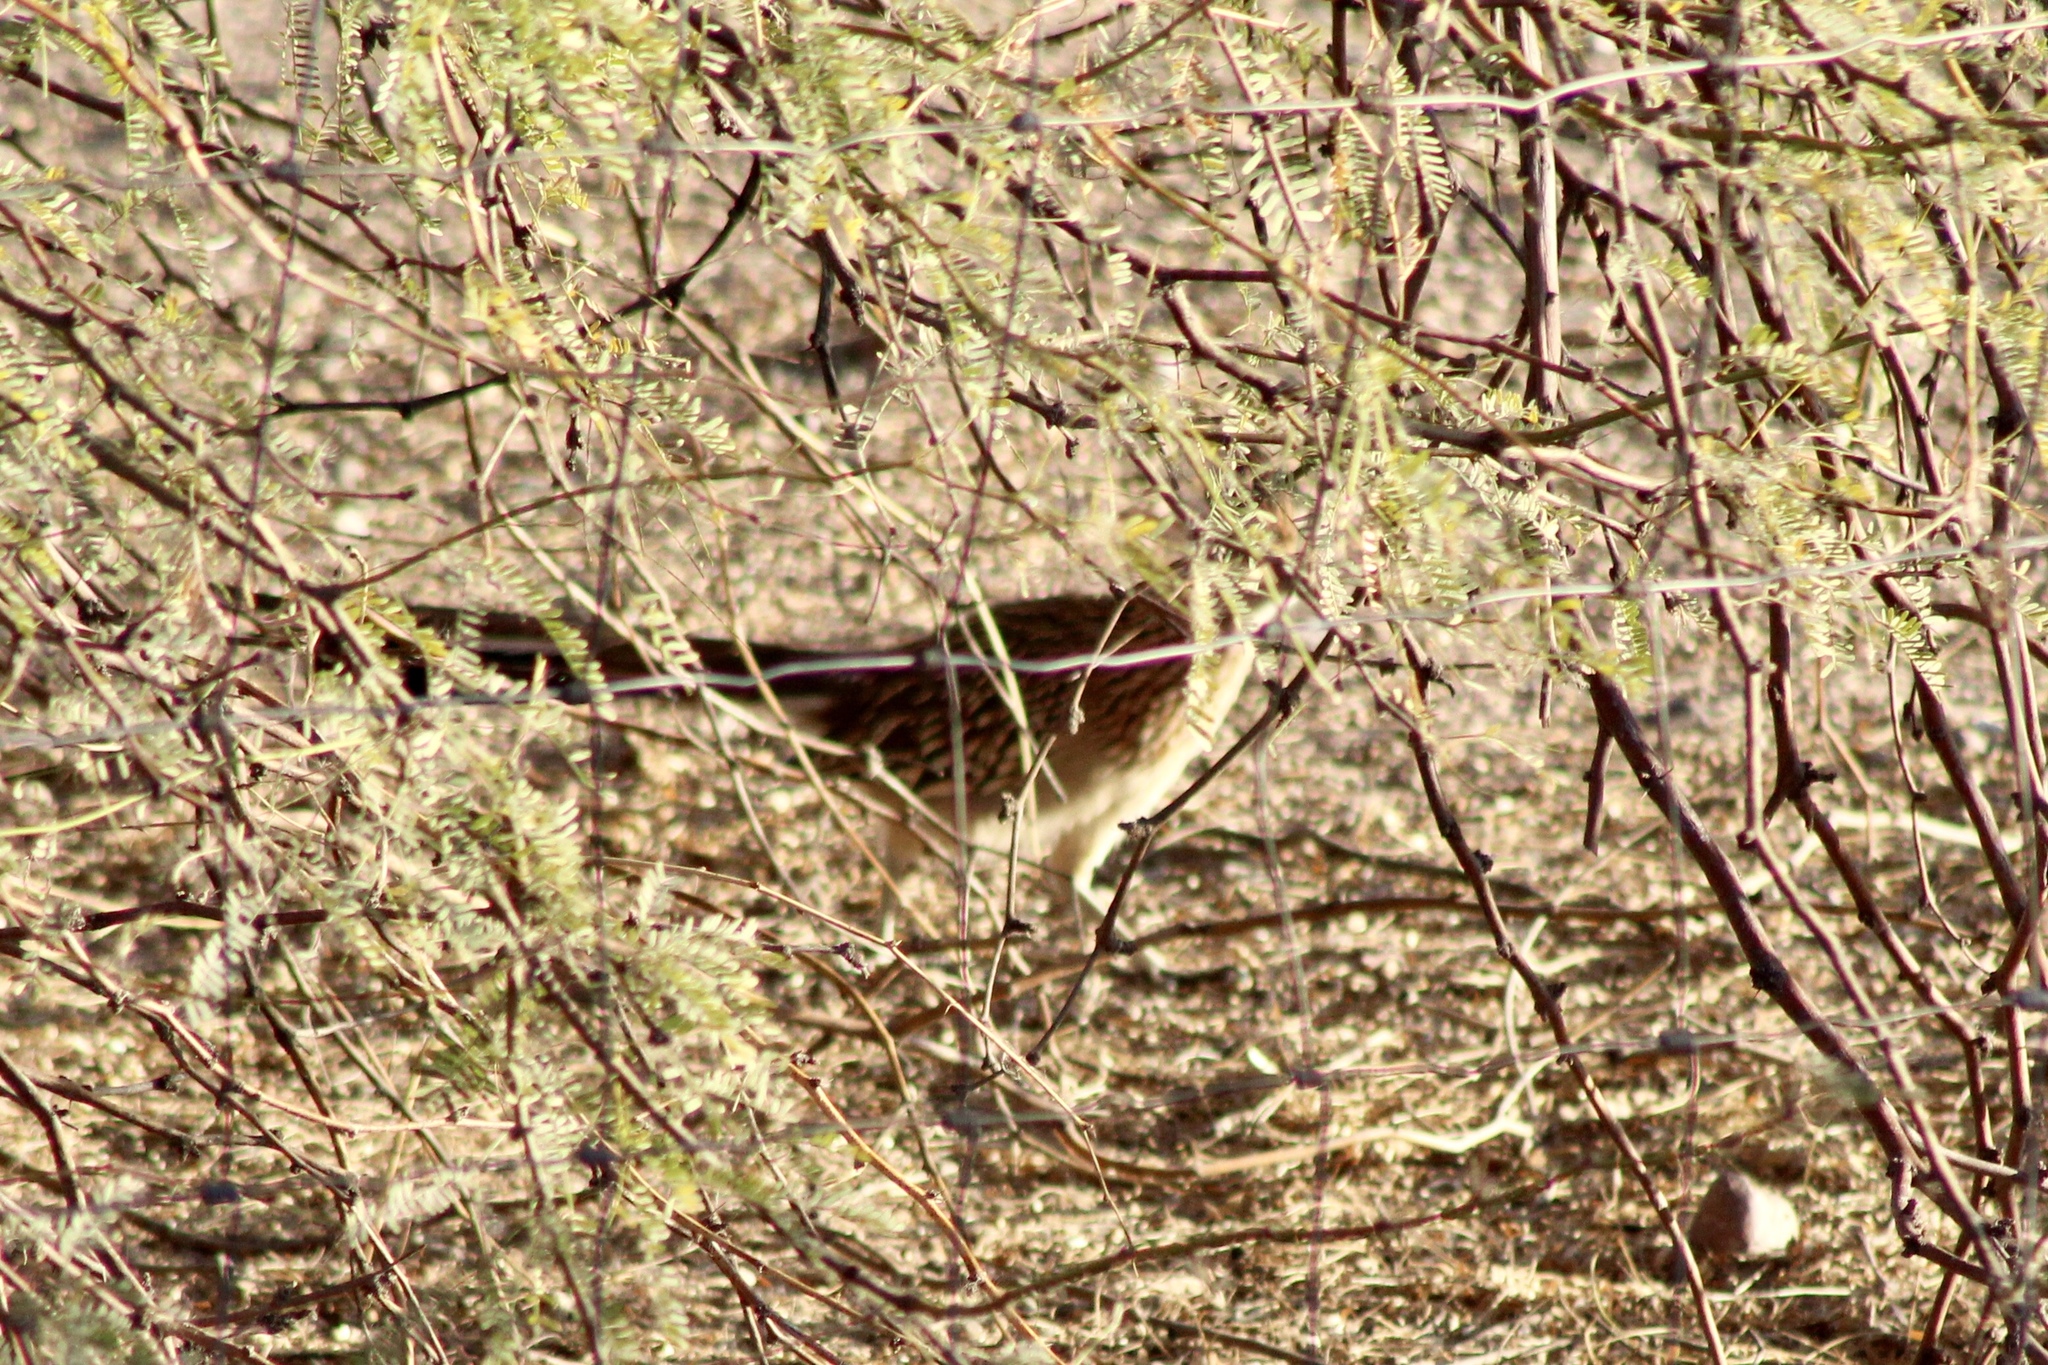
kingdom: Animalia
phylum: Chordata
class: Aves
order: Cuculiformes
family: Cuculidae
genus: Geococcyx
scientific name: Geococcyx californianus
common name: Greater roadrunner
